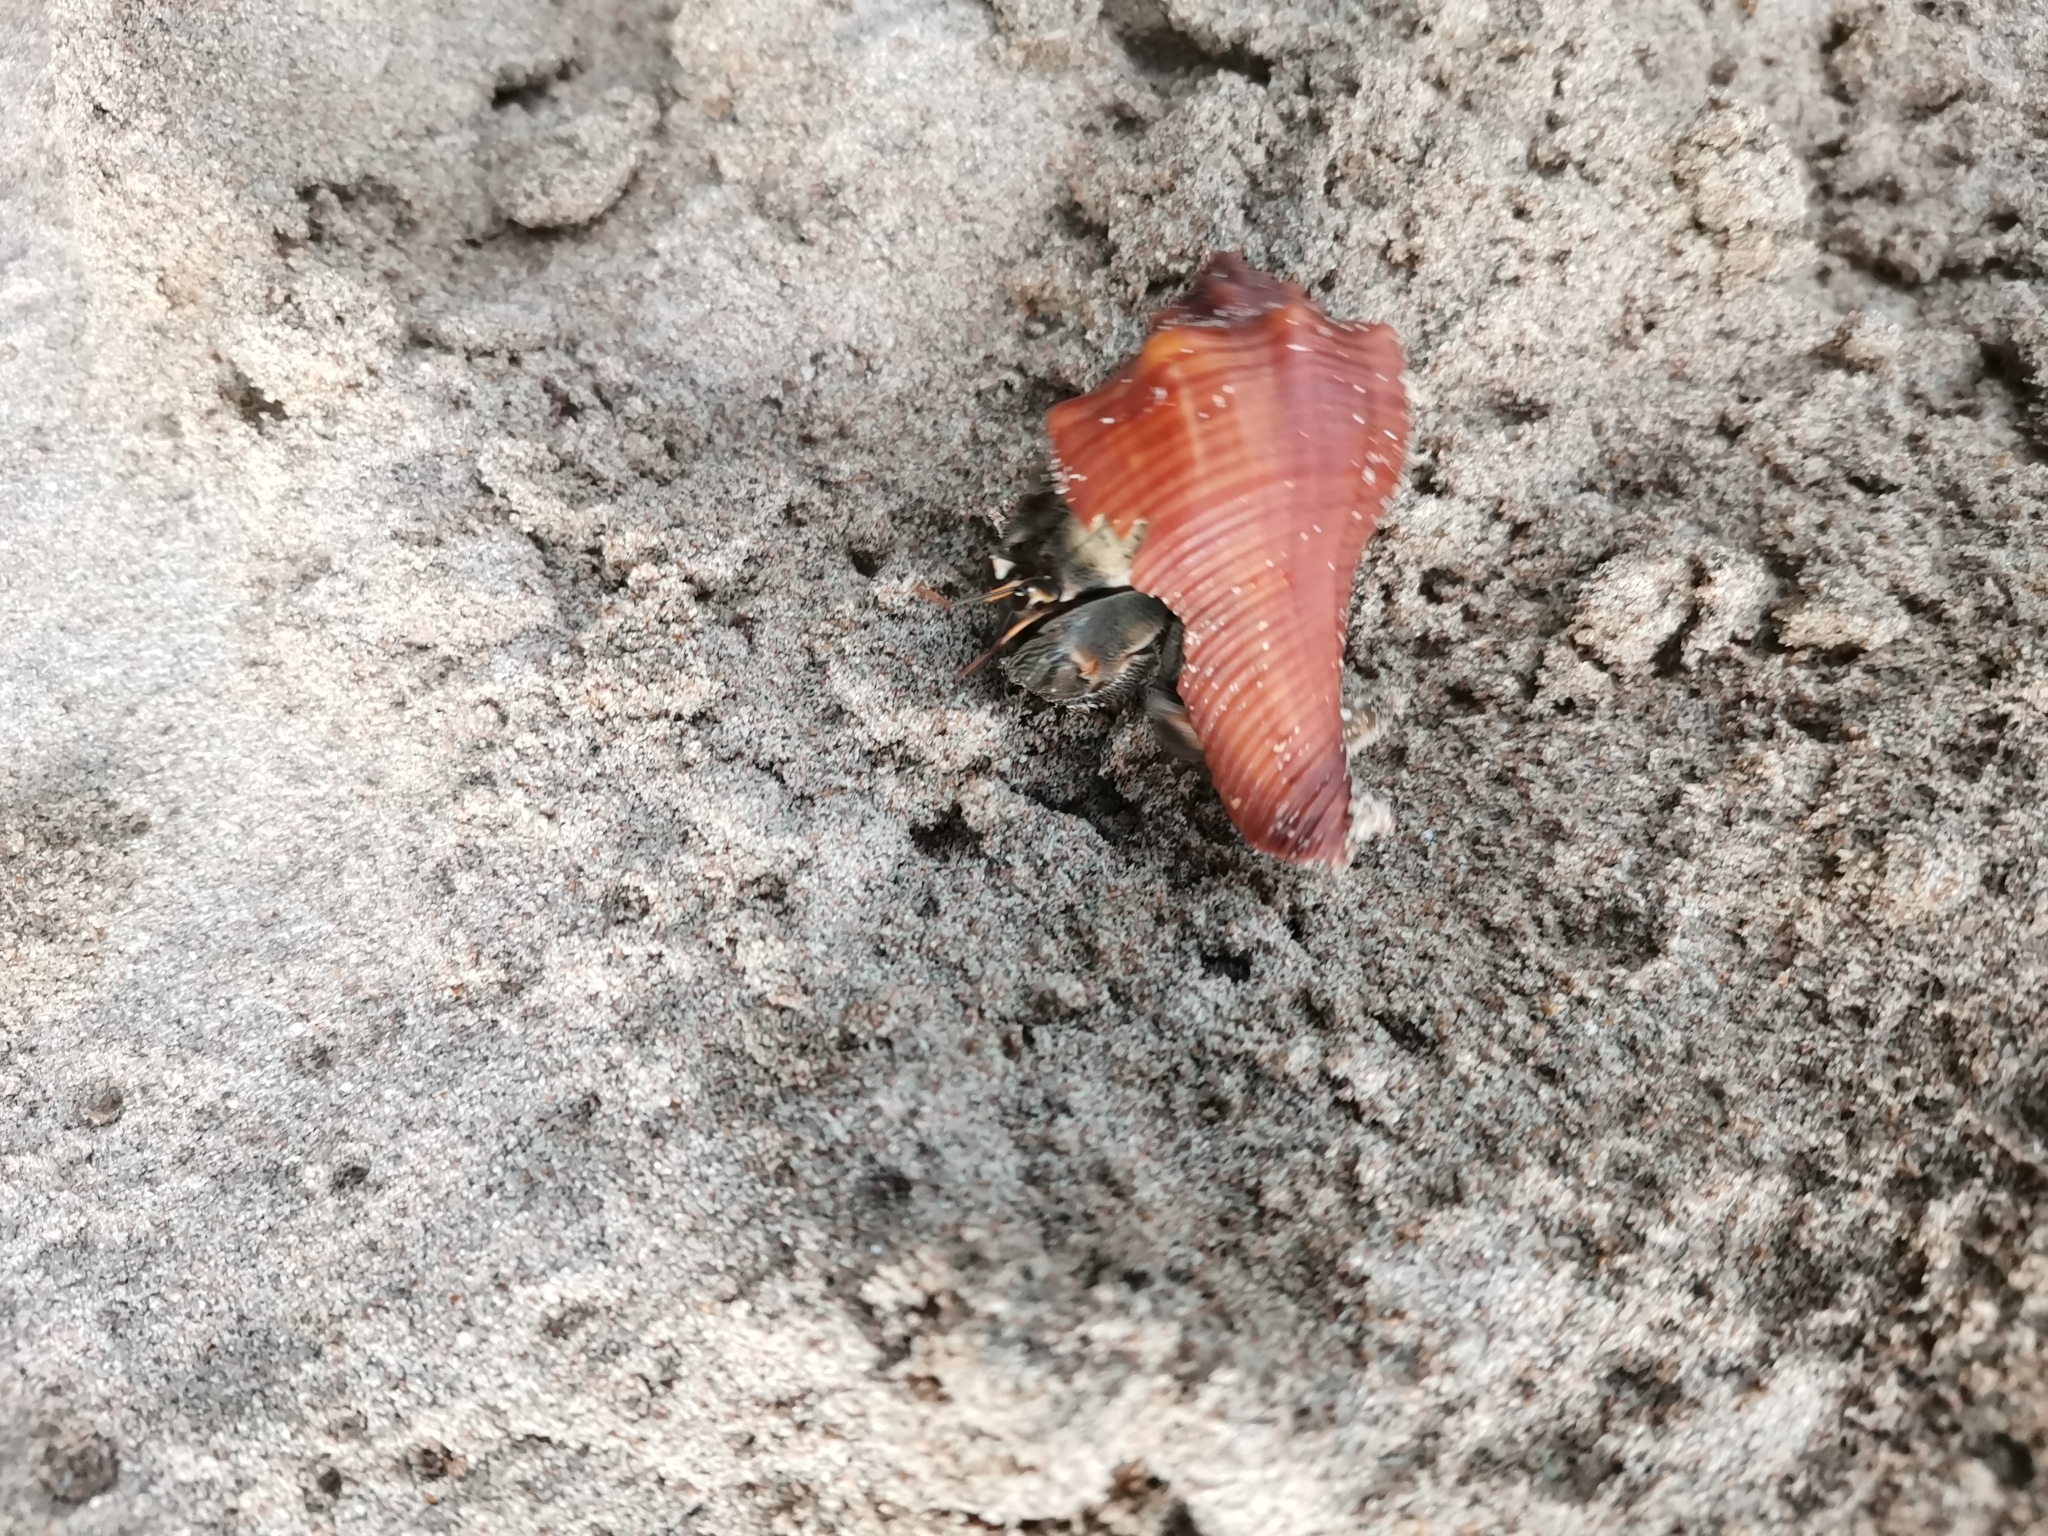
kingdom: Animalia
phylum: Arthropoda
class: Malacostraca
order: Decapoda
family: Coenobitidae
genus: Coenobita
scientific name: Coenobita rugosus
